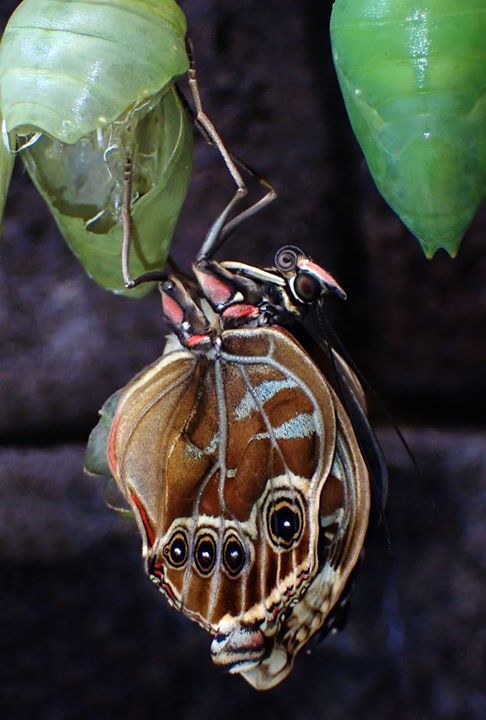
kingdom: Animalia
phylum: Arthropoda
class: Insecta
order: Lepidoptera
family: Nymphalidae
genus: Morpho
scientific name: Morpho helenor
